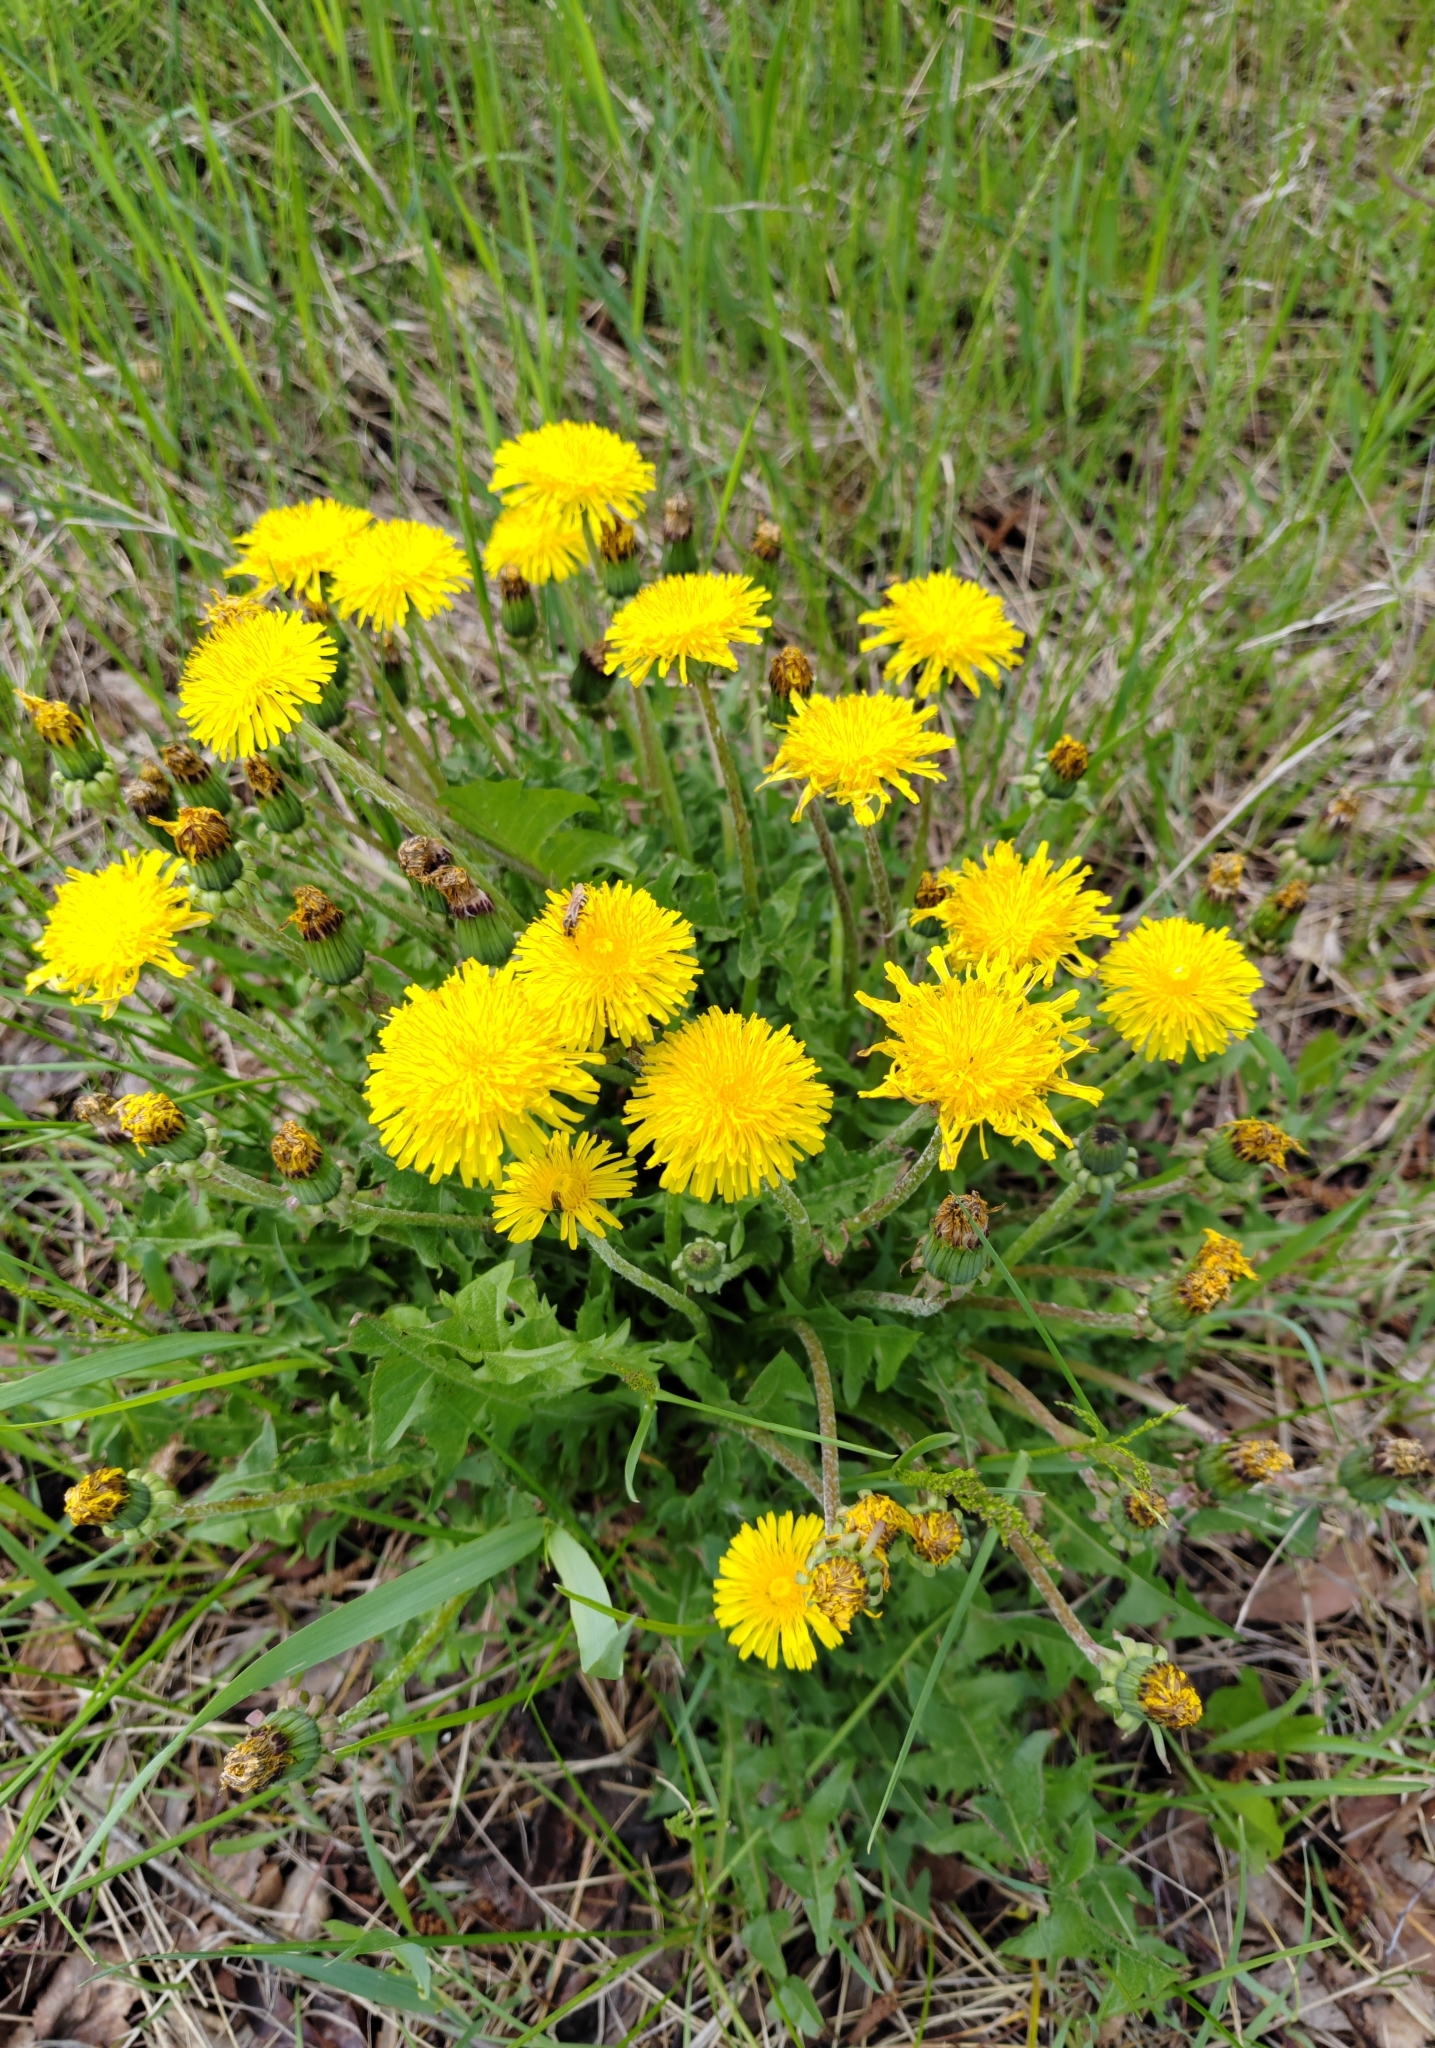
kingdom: Plantae
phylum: Tracheophyta
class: Magnoliopsida
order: Asterales
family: Asteraceae
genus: Taraxacum
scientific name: Taraxacum officinale
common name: Common dandelion
